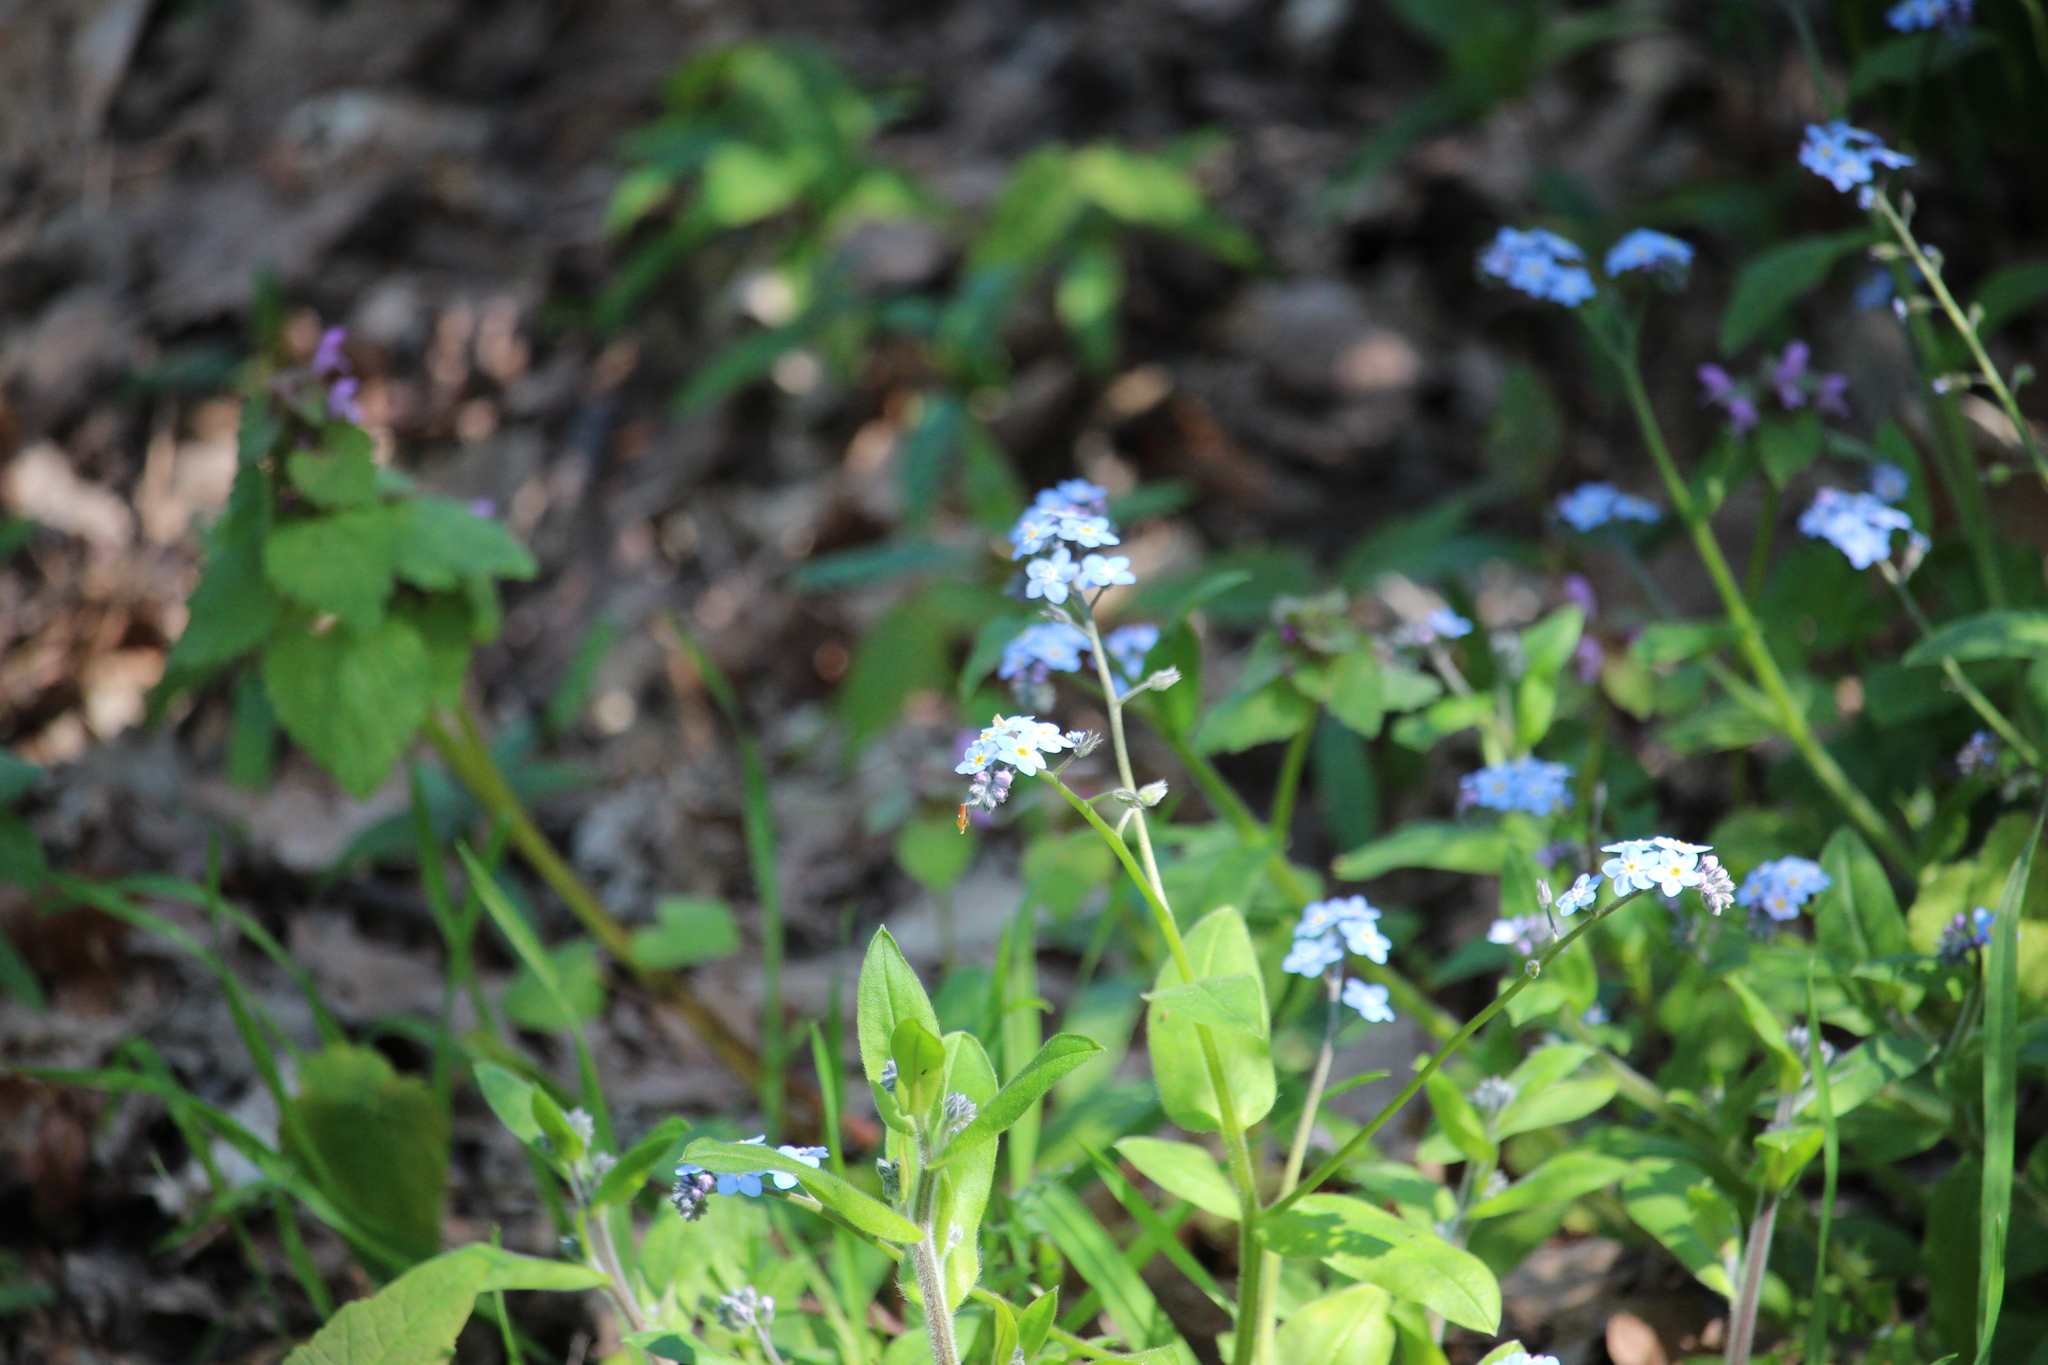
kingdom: Plantae
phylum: Tracheophyta
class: Magnoliopsida
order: Boraginales
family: Boraginaceae
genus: Myosotis
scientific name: Myosotis laxa
